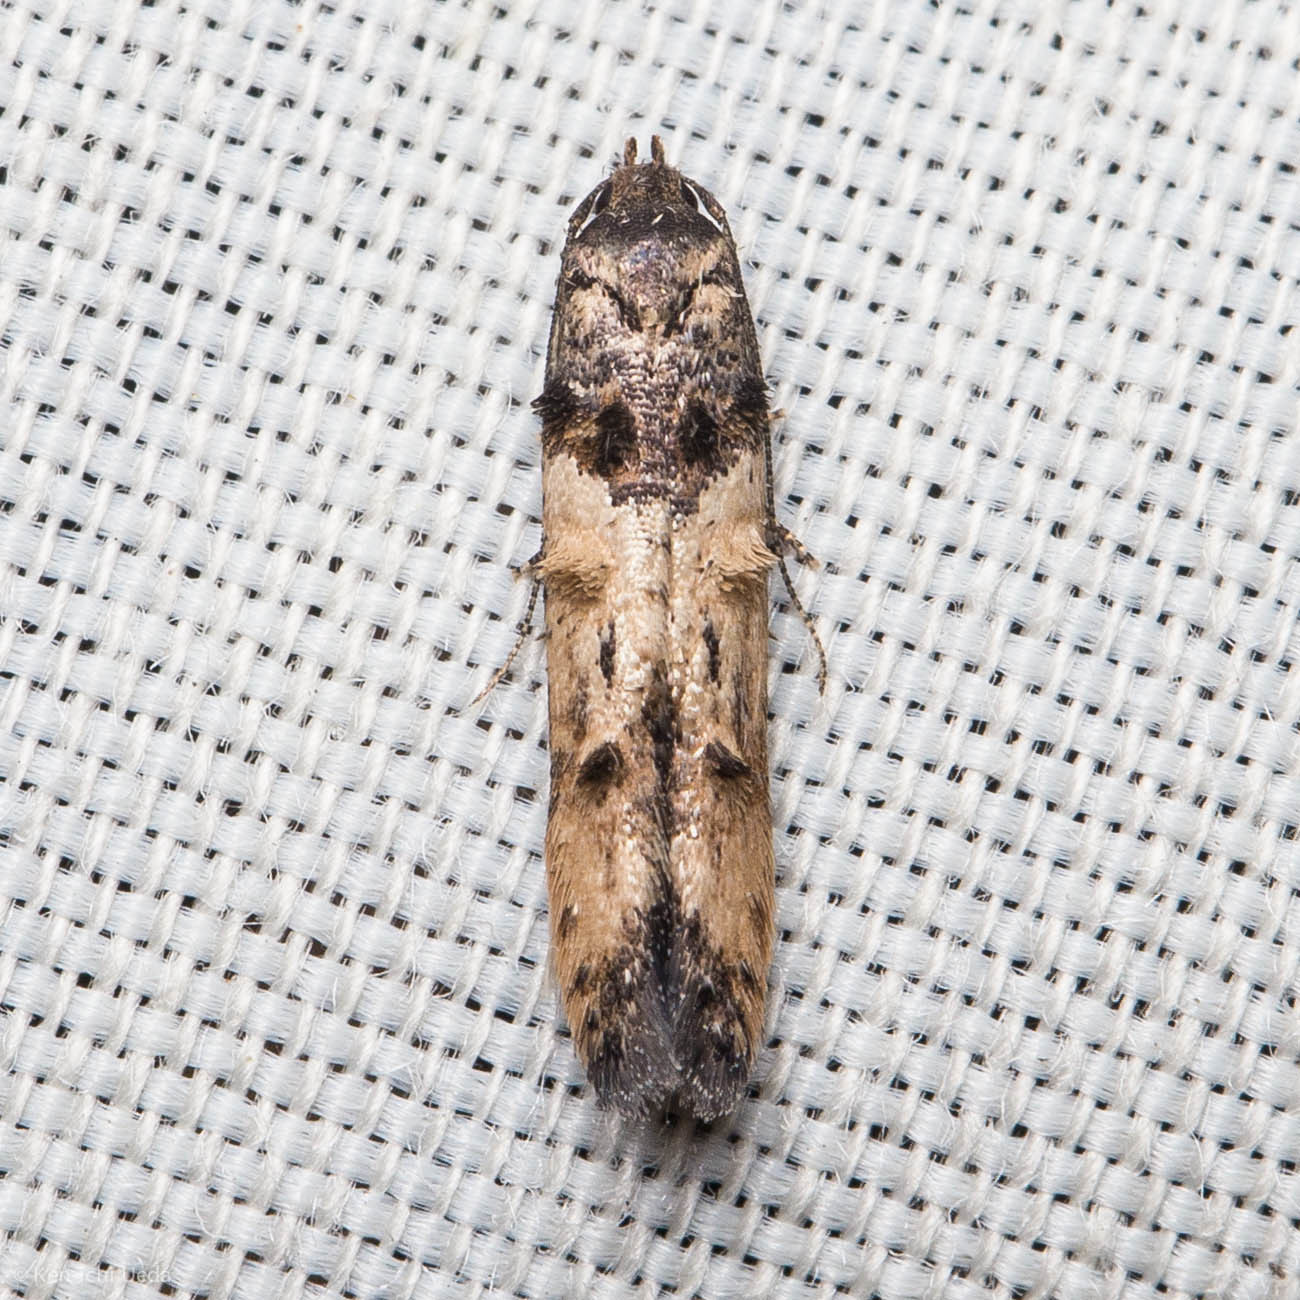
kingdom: Animalia
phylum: Arthropoda
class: Insecta
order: Lepidoptera
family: Cosmopterigidae
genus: Walshia
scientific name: Walshia miscecolorella
